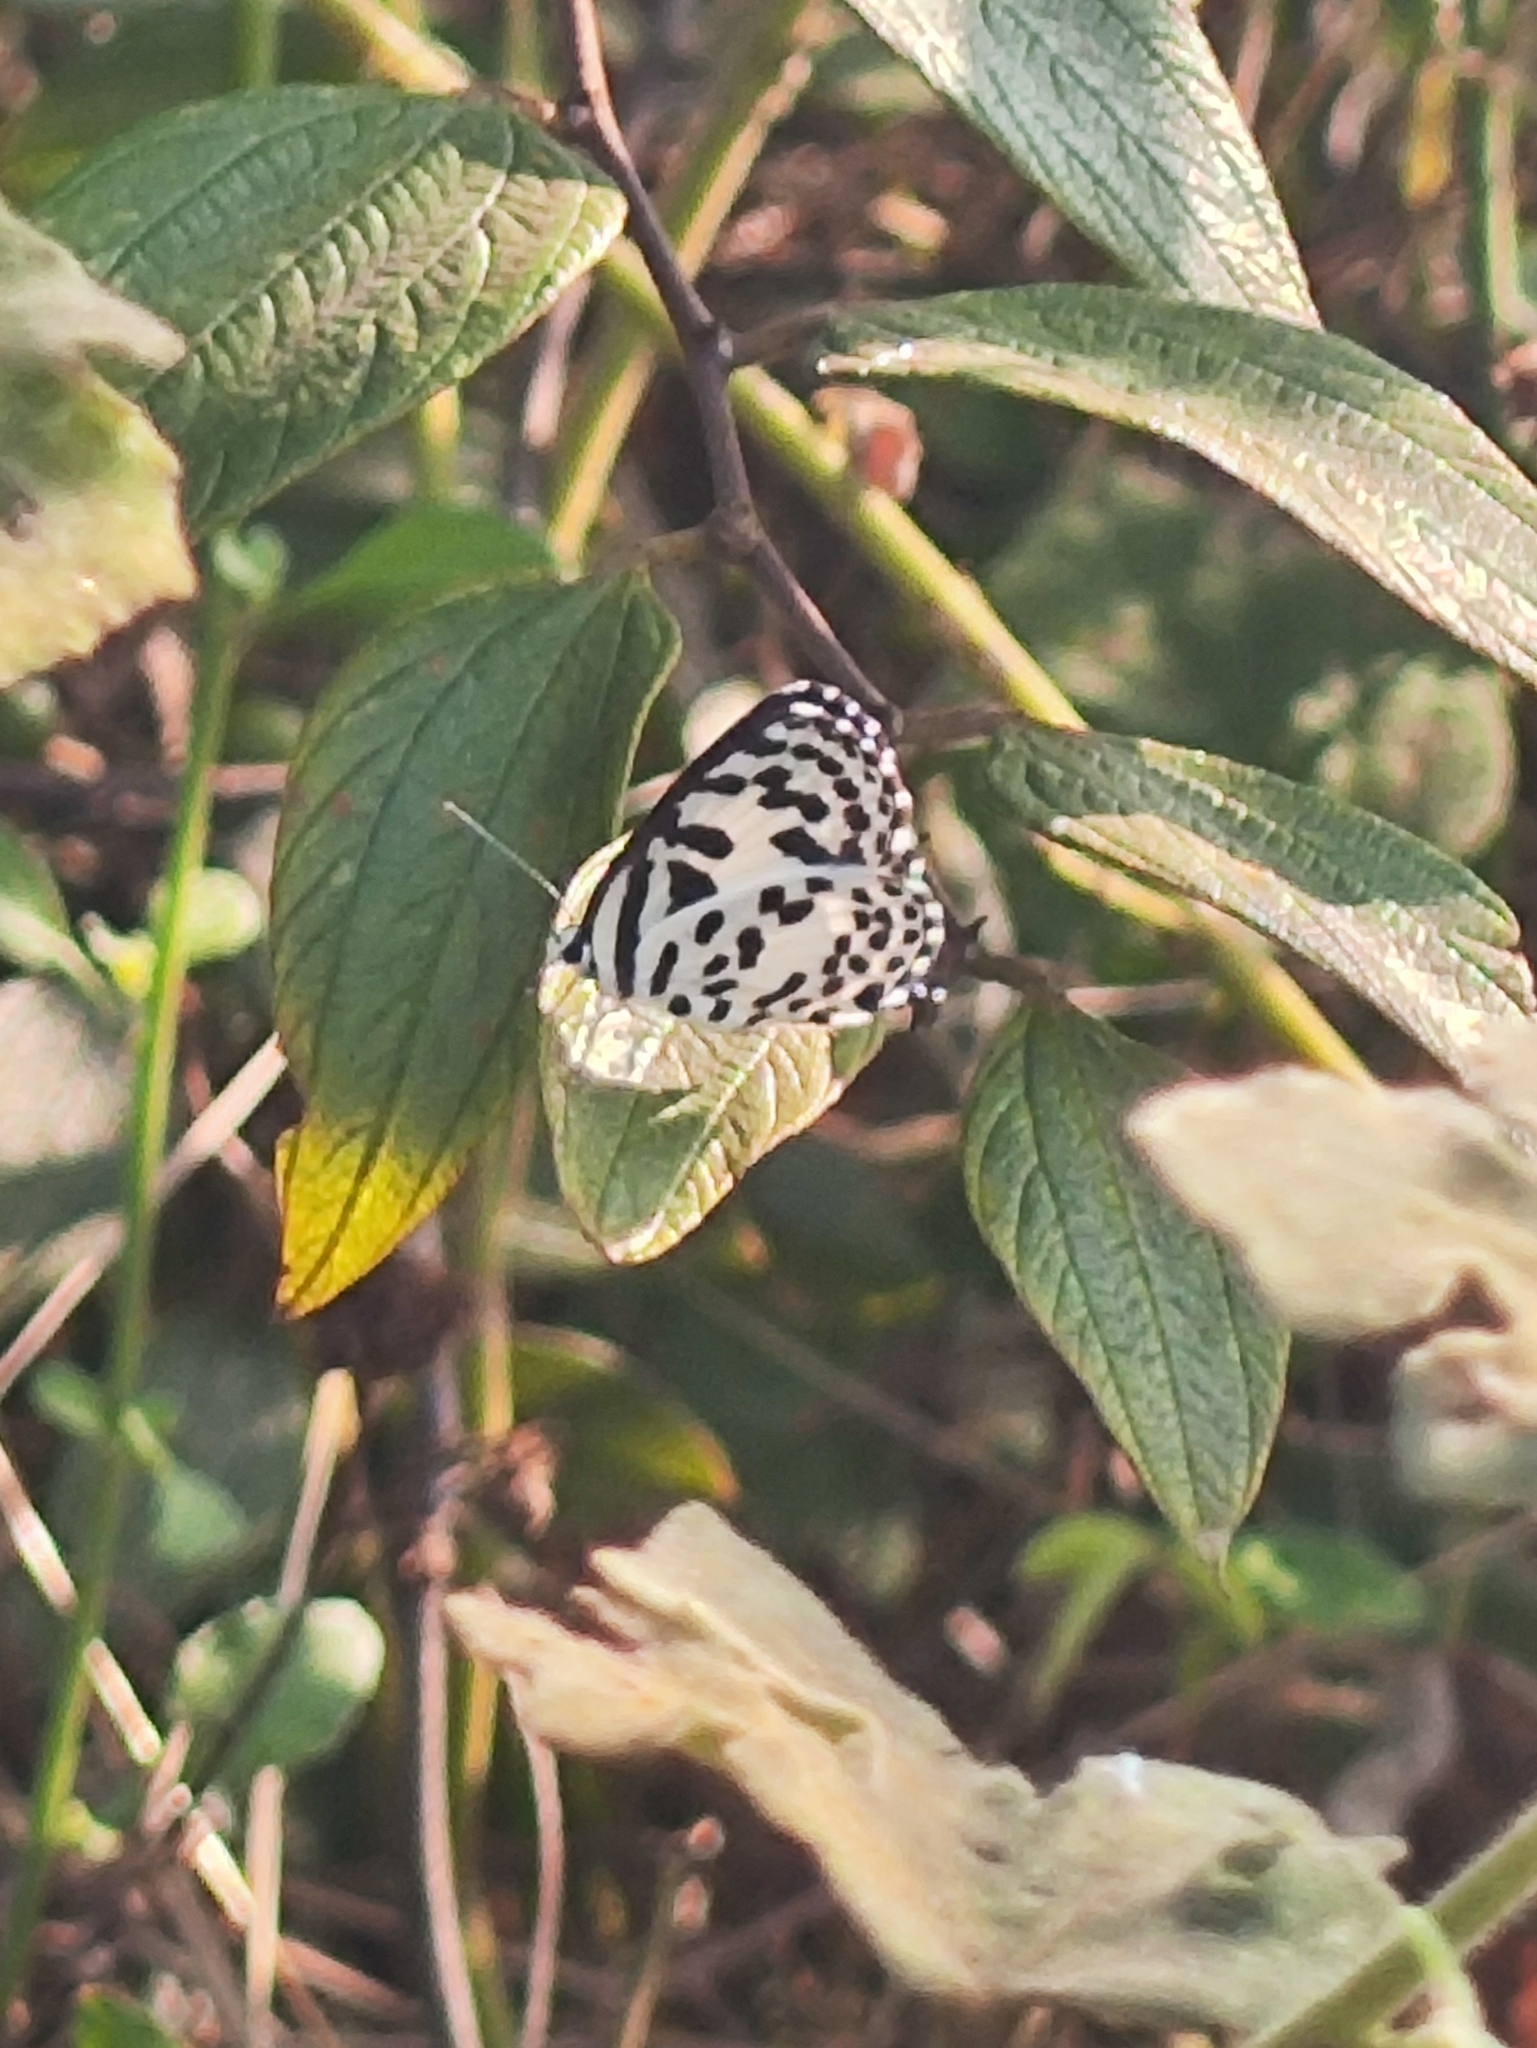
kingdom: Animalia
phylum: Arthropoda
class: Insecta
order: Lepidoptera
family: Lycaenidae
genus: Castalius
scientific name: Castalius rosimon
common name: Common pierrot
